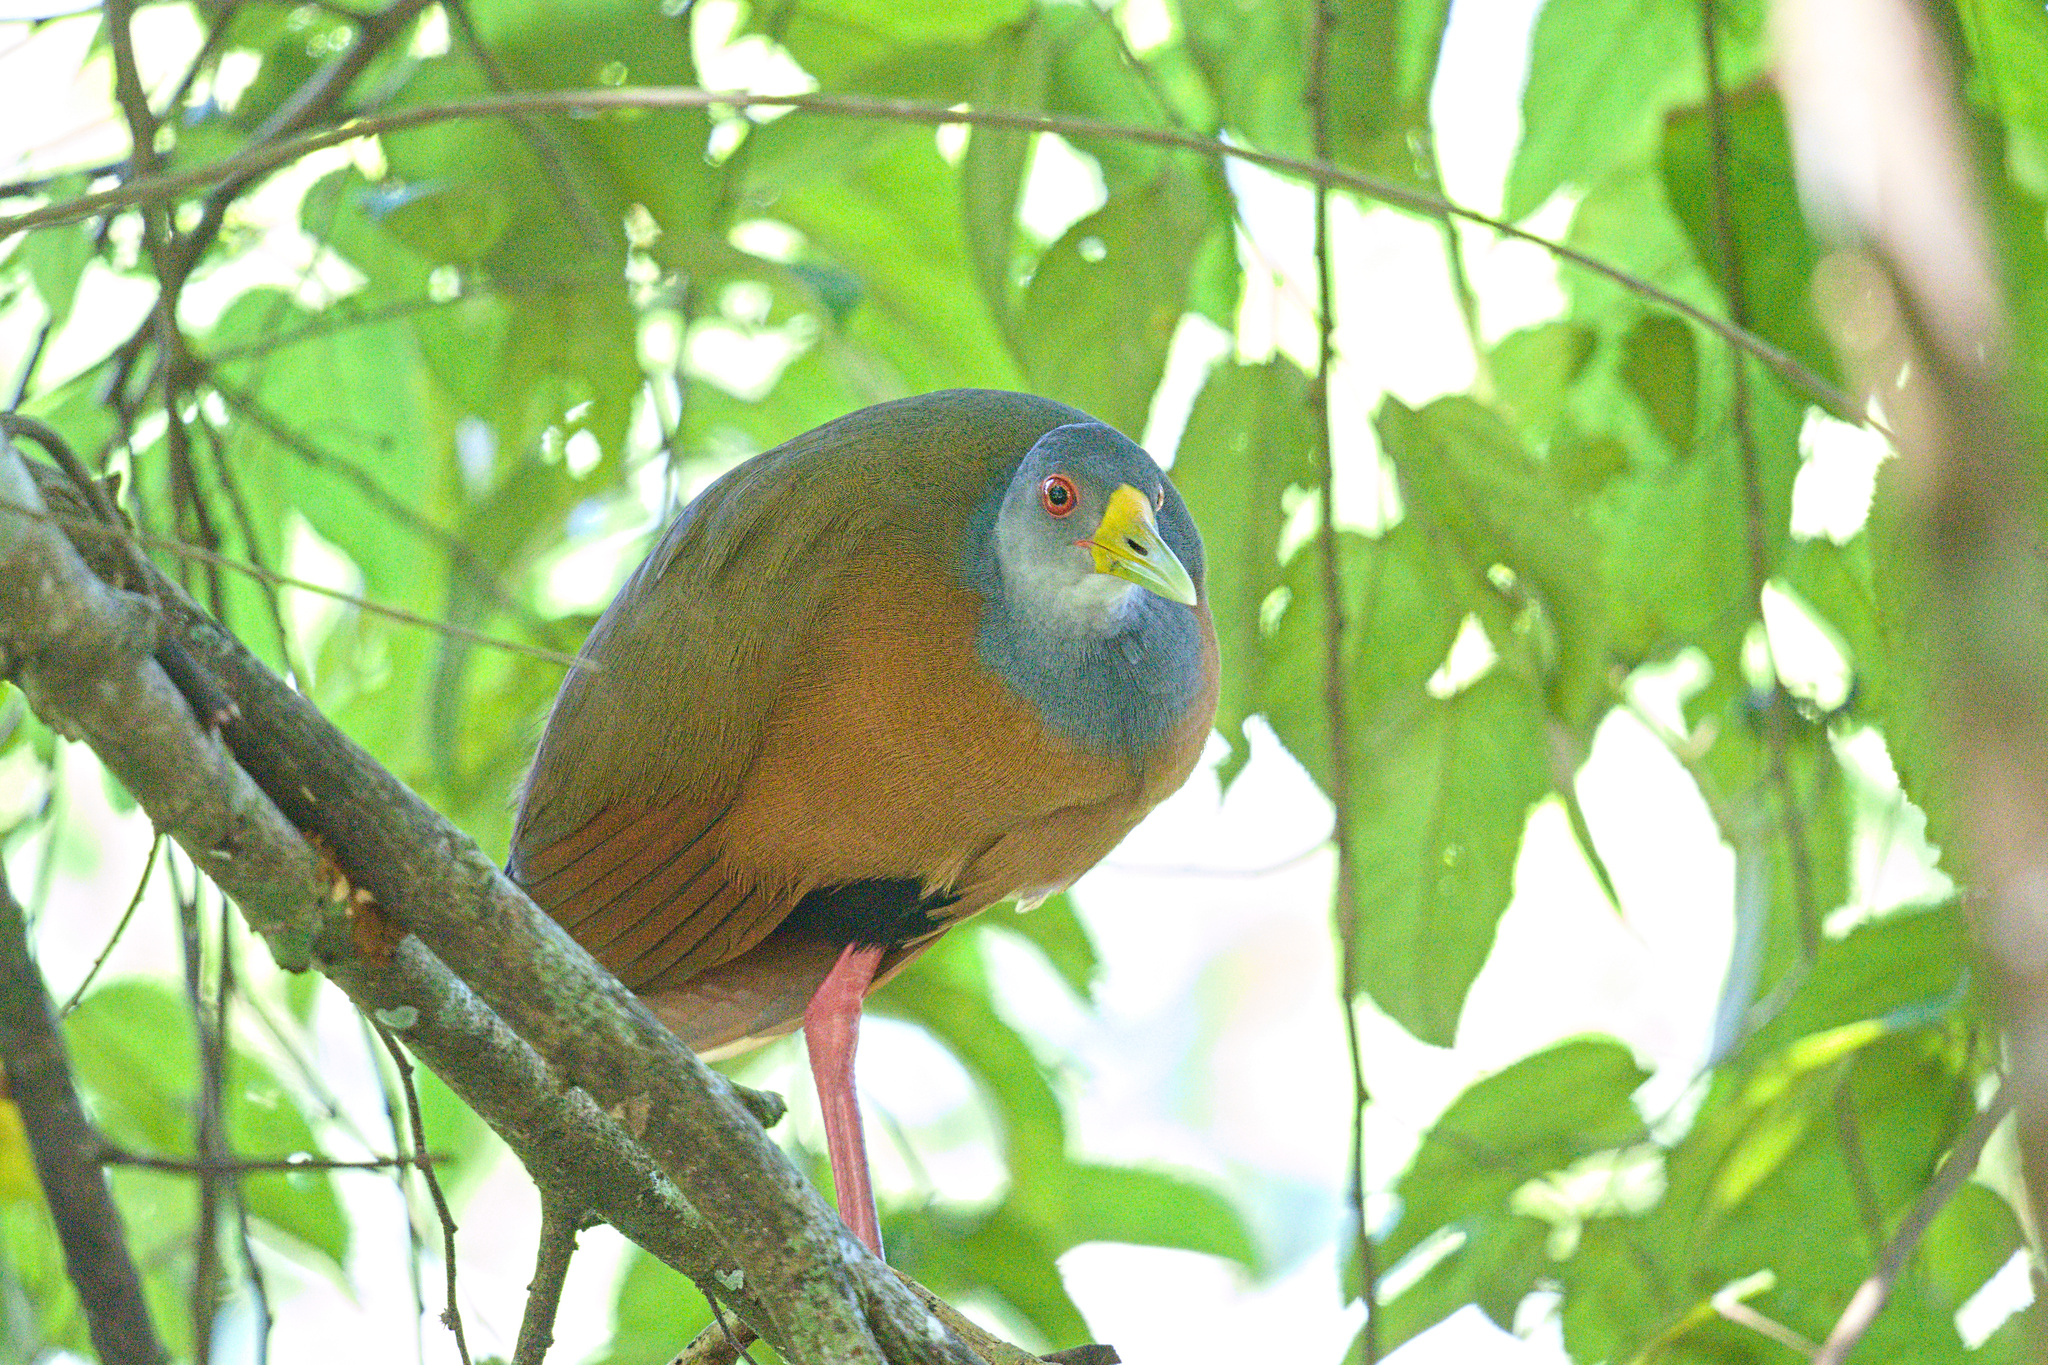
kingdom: Animalia
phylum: Chordata
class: Aves
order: Gruiformes
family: Rallidae
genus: Aramides
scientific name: Aramides cajanea
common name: Gray-necked wood-rail
